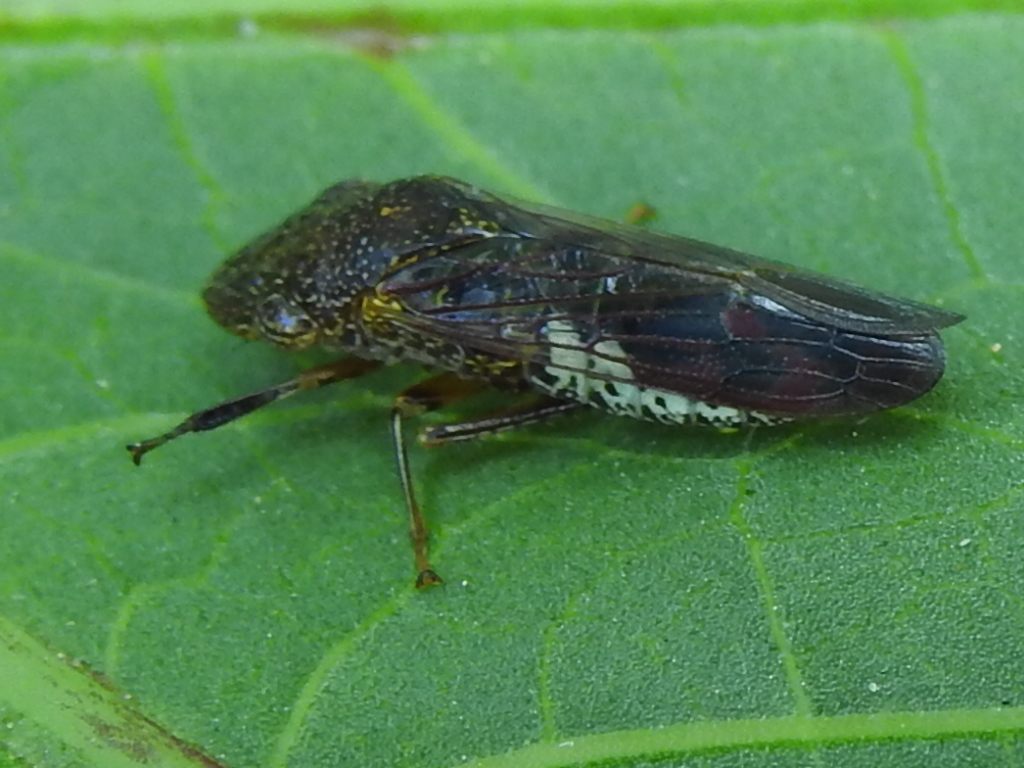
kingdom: Animalia
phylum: Arthropoda
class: Insecta
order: Hemiptera
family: Cicadellidae
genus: Homalodisca
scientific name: Homalodisca vitripennis
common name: Glassy-winged sharpshooter
